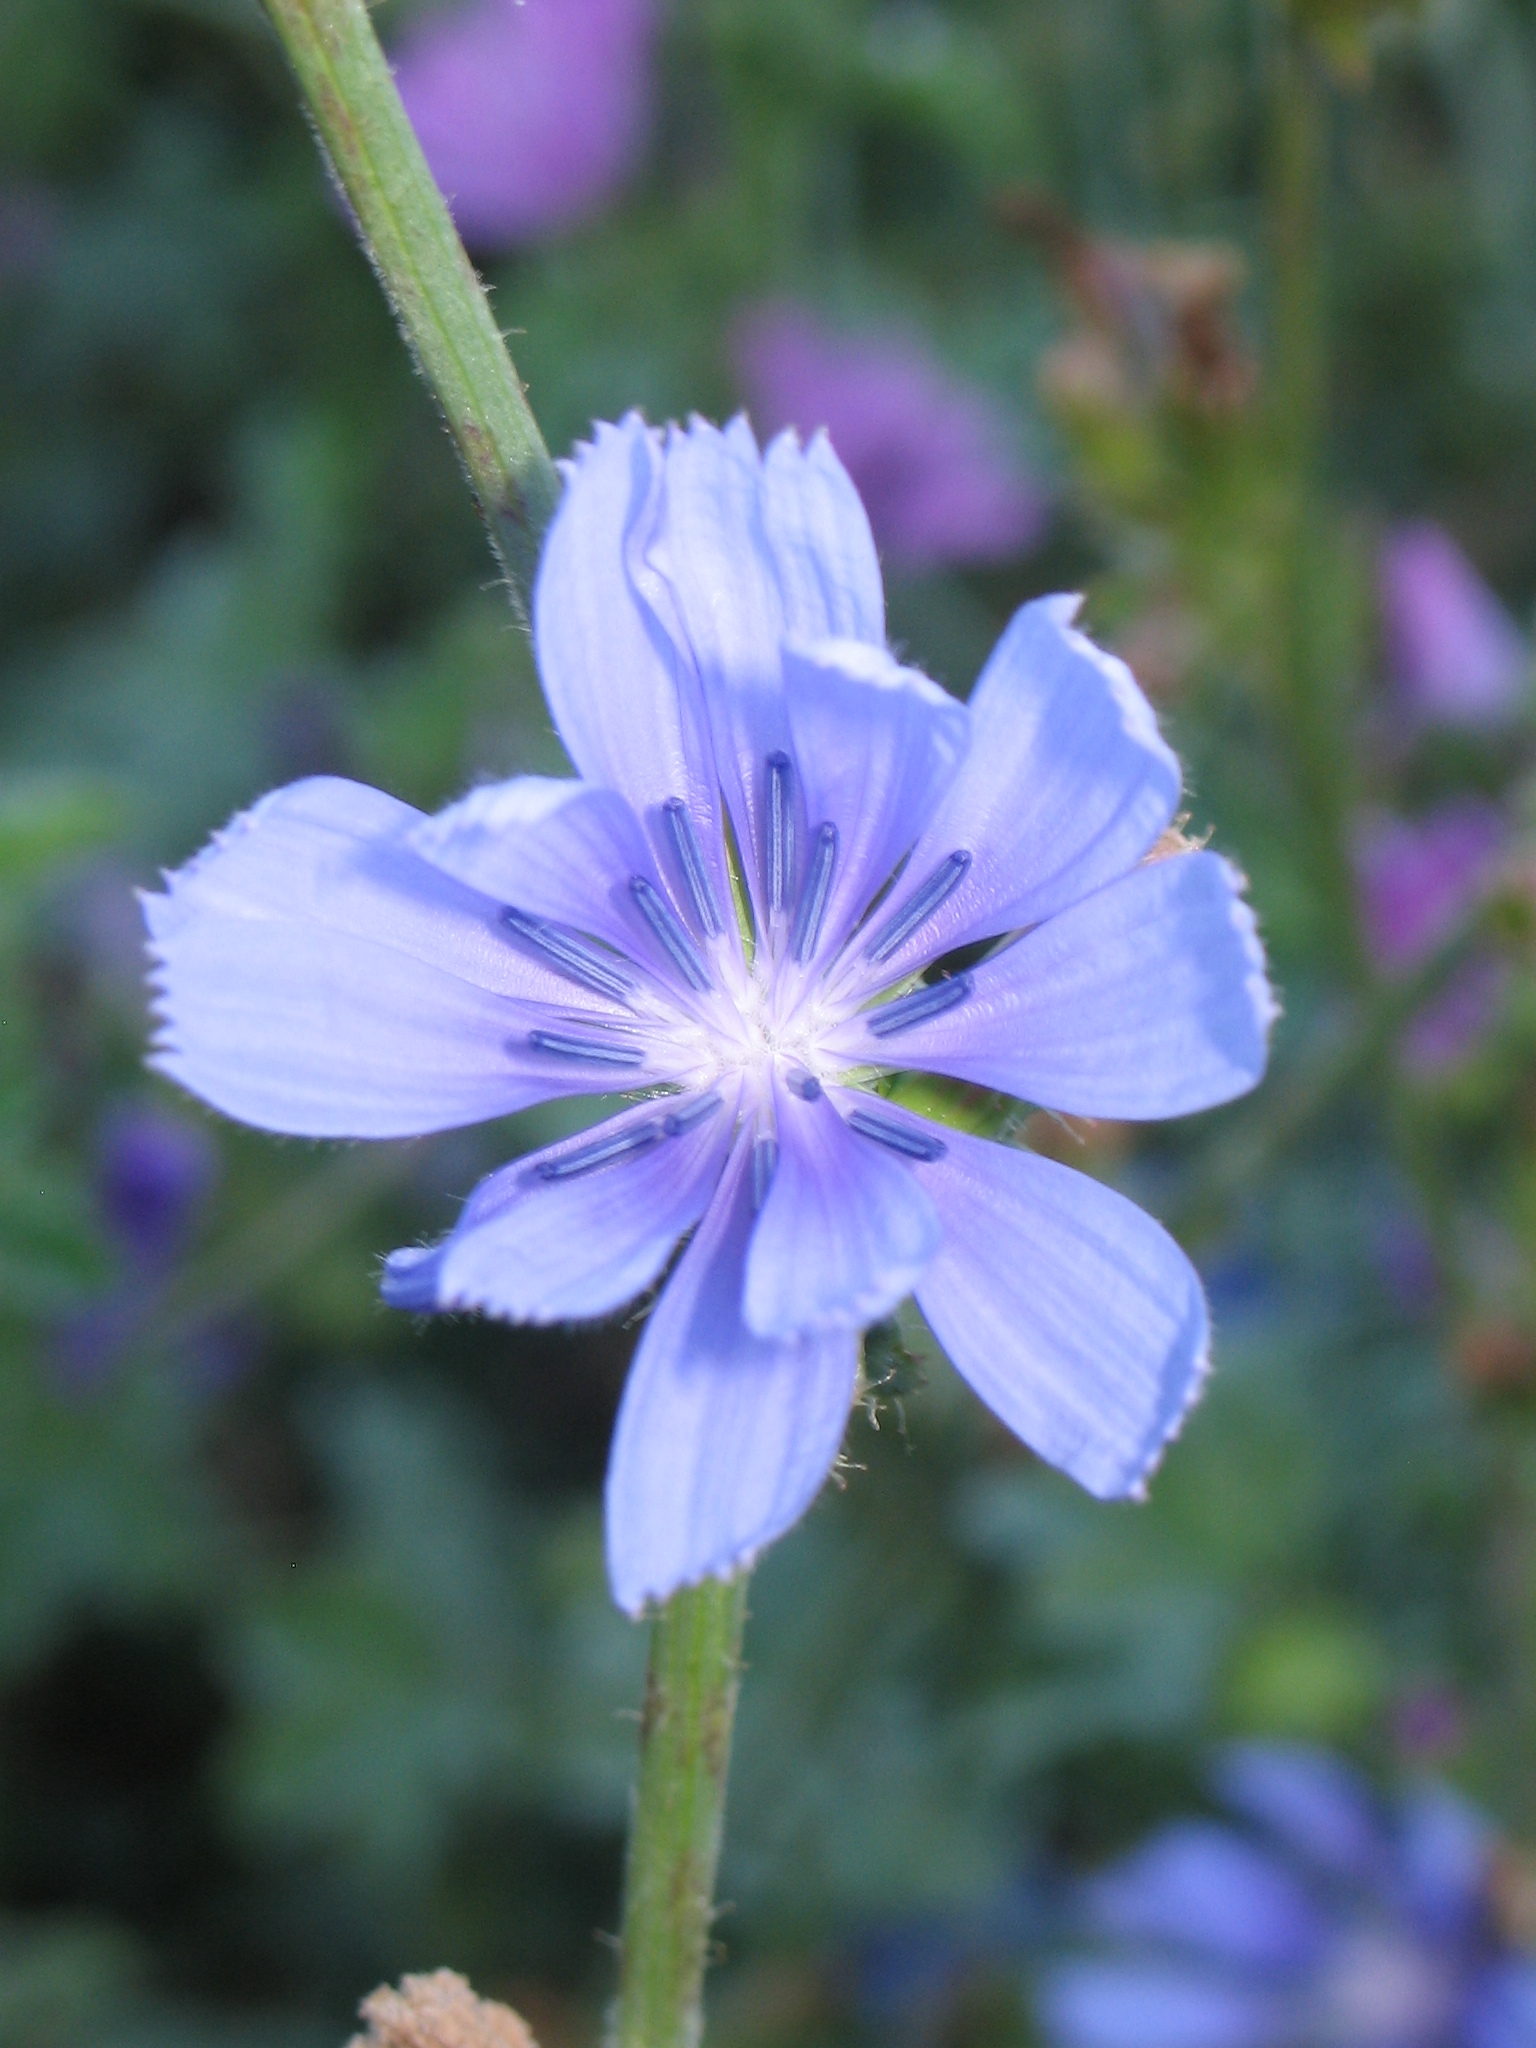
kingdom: Plantae
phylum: Tracheophyta
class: Magnoliopsida
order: Asterales
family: Asteraceae
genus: Cichorium
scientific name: Cichorium intybus
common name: Chicory
